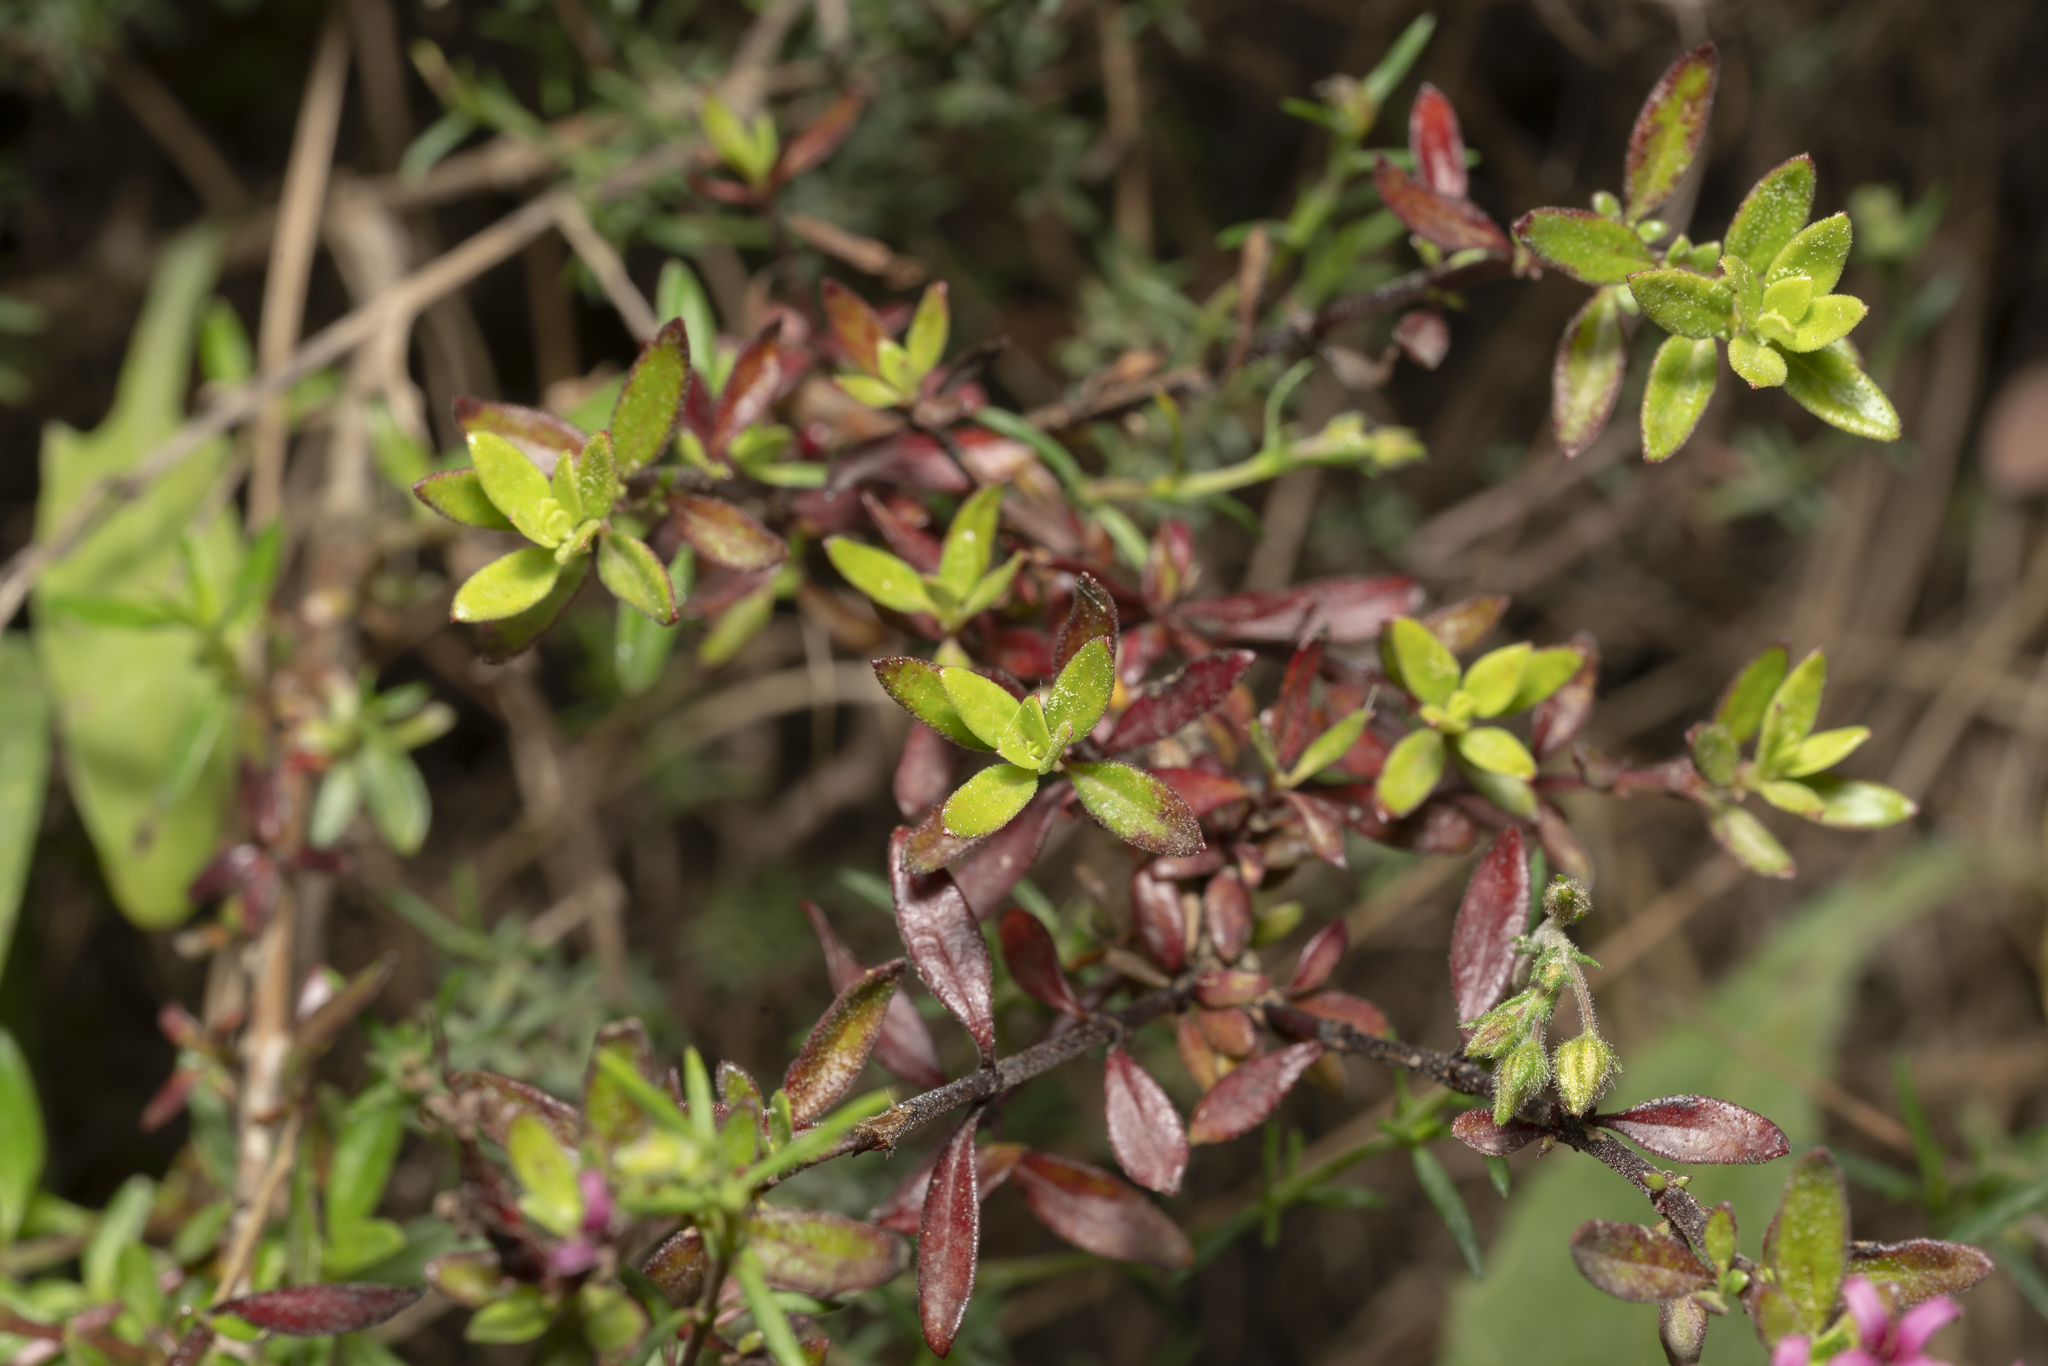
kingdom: Plantae
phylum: Tracheophyta
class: Magnoliopsida
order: Gentianales
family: Rubiaceae
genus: Plocama
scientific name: Plocama calabrica
